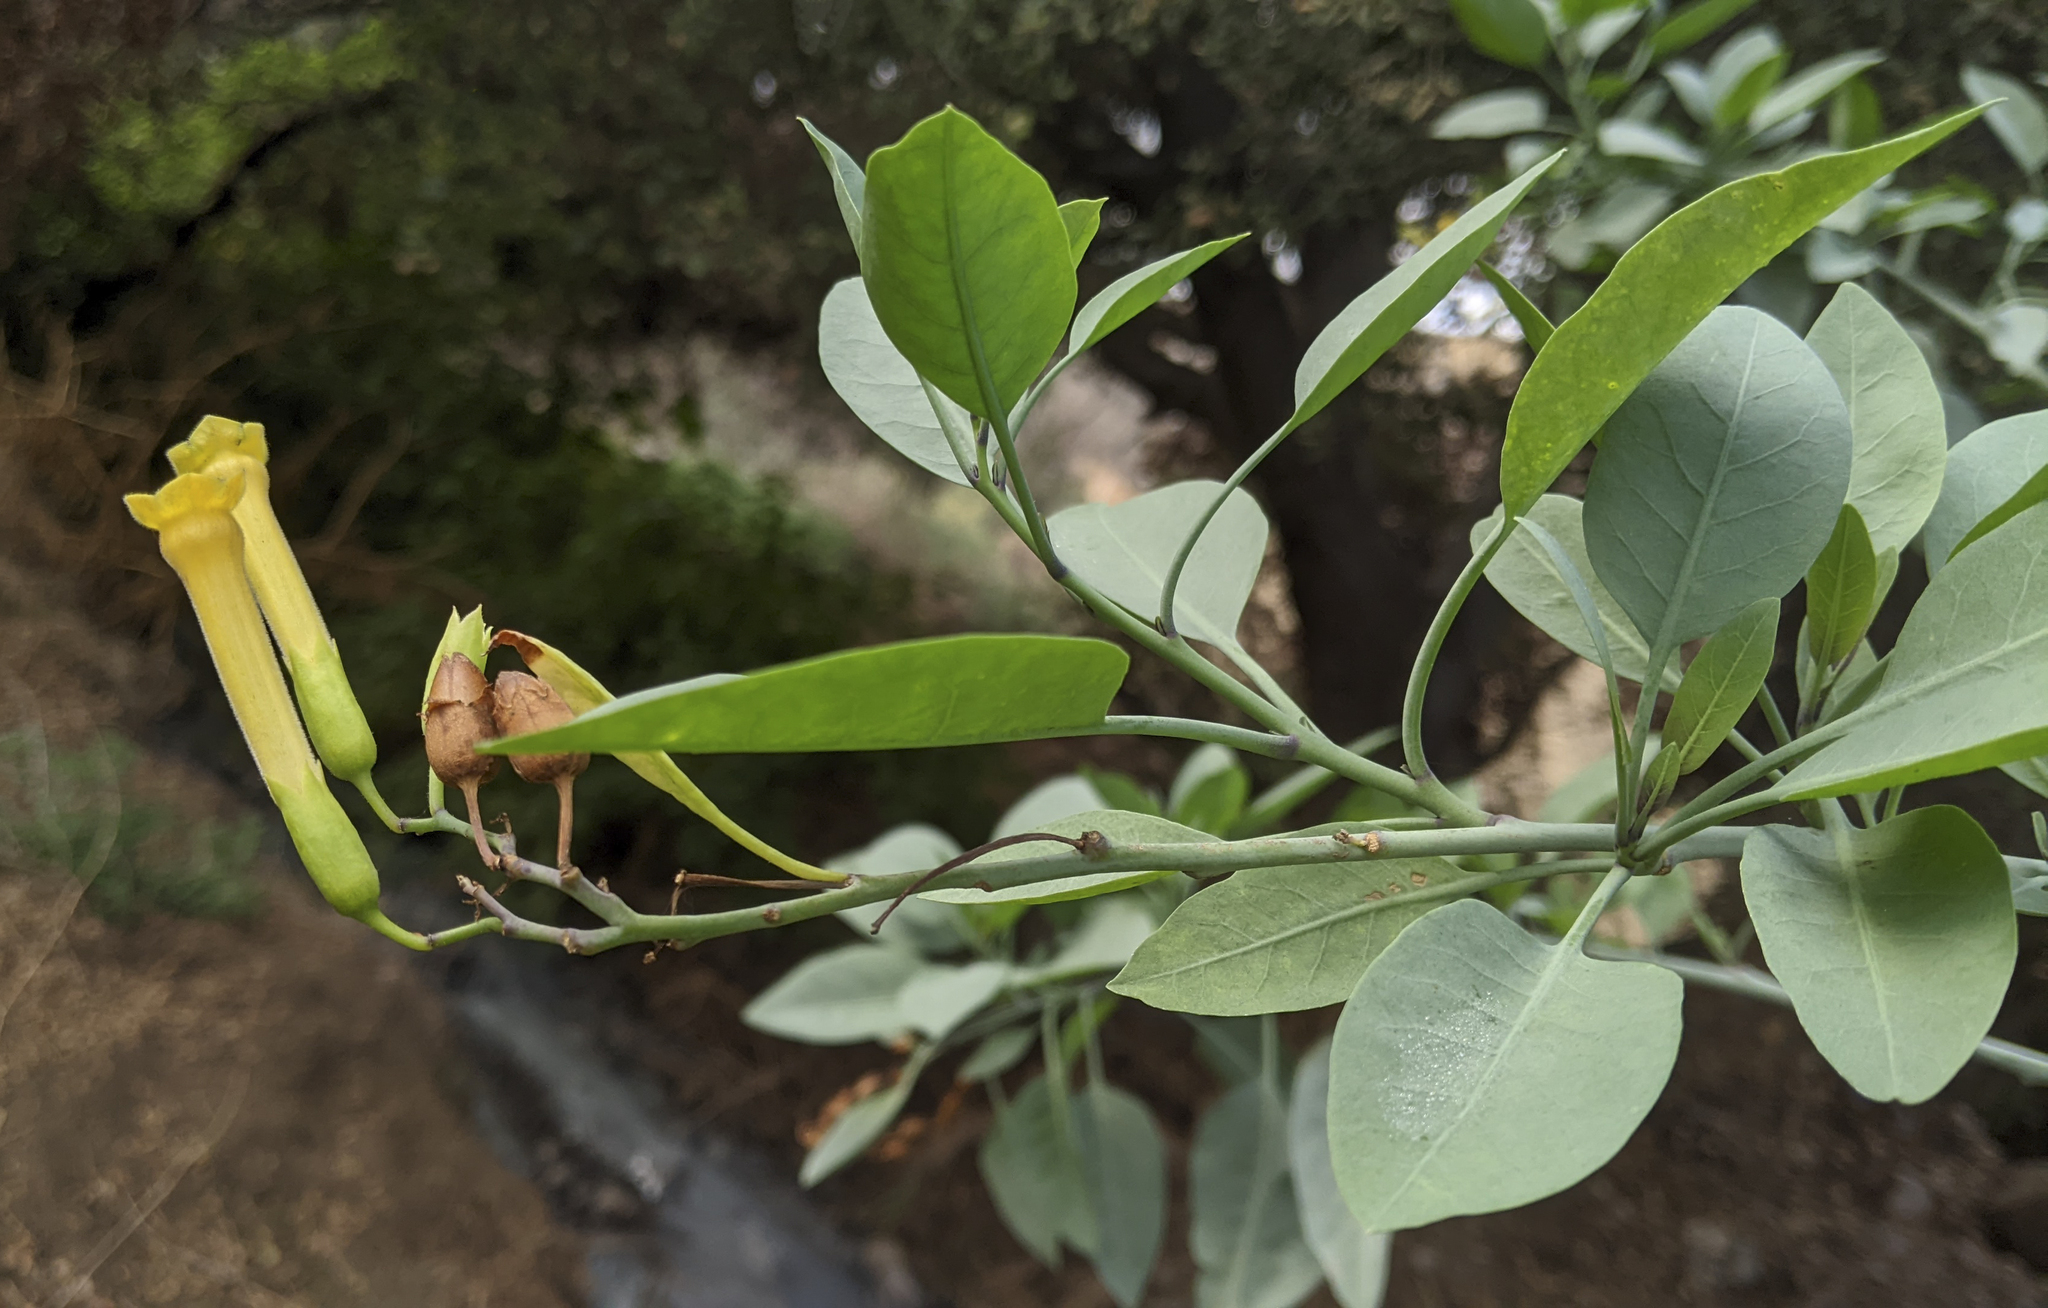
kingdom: Plantae
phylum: Tracheophyta
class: Magnoliopsida
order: Solanales
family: Solanaceae
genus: Nicotiana
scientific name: Nicotiana glauca
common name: Tree tobacco
